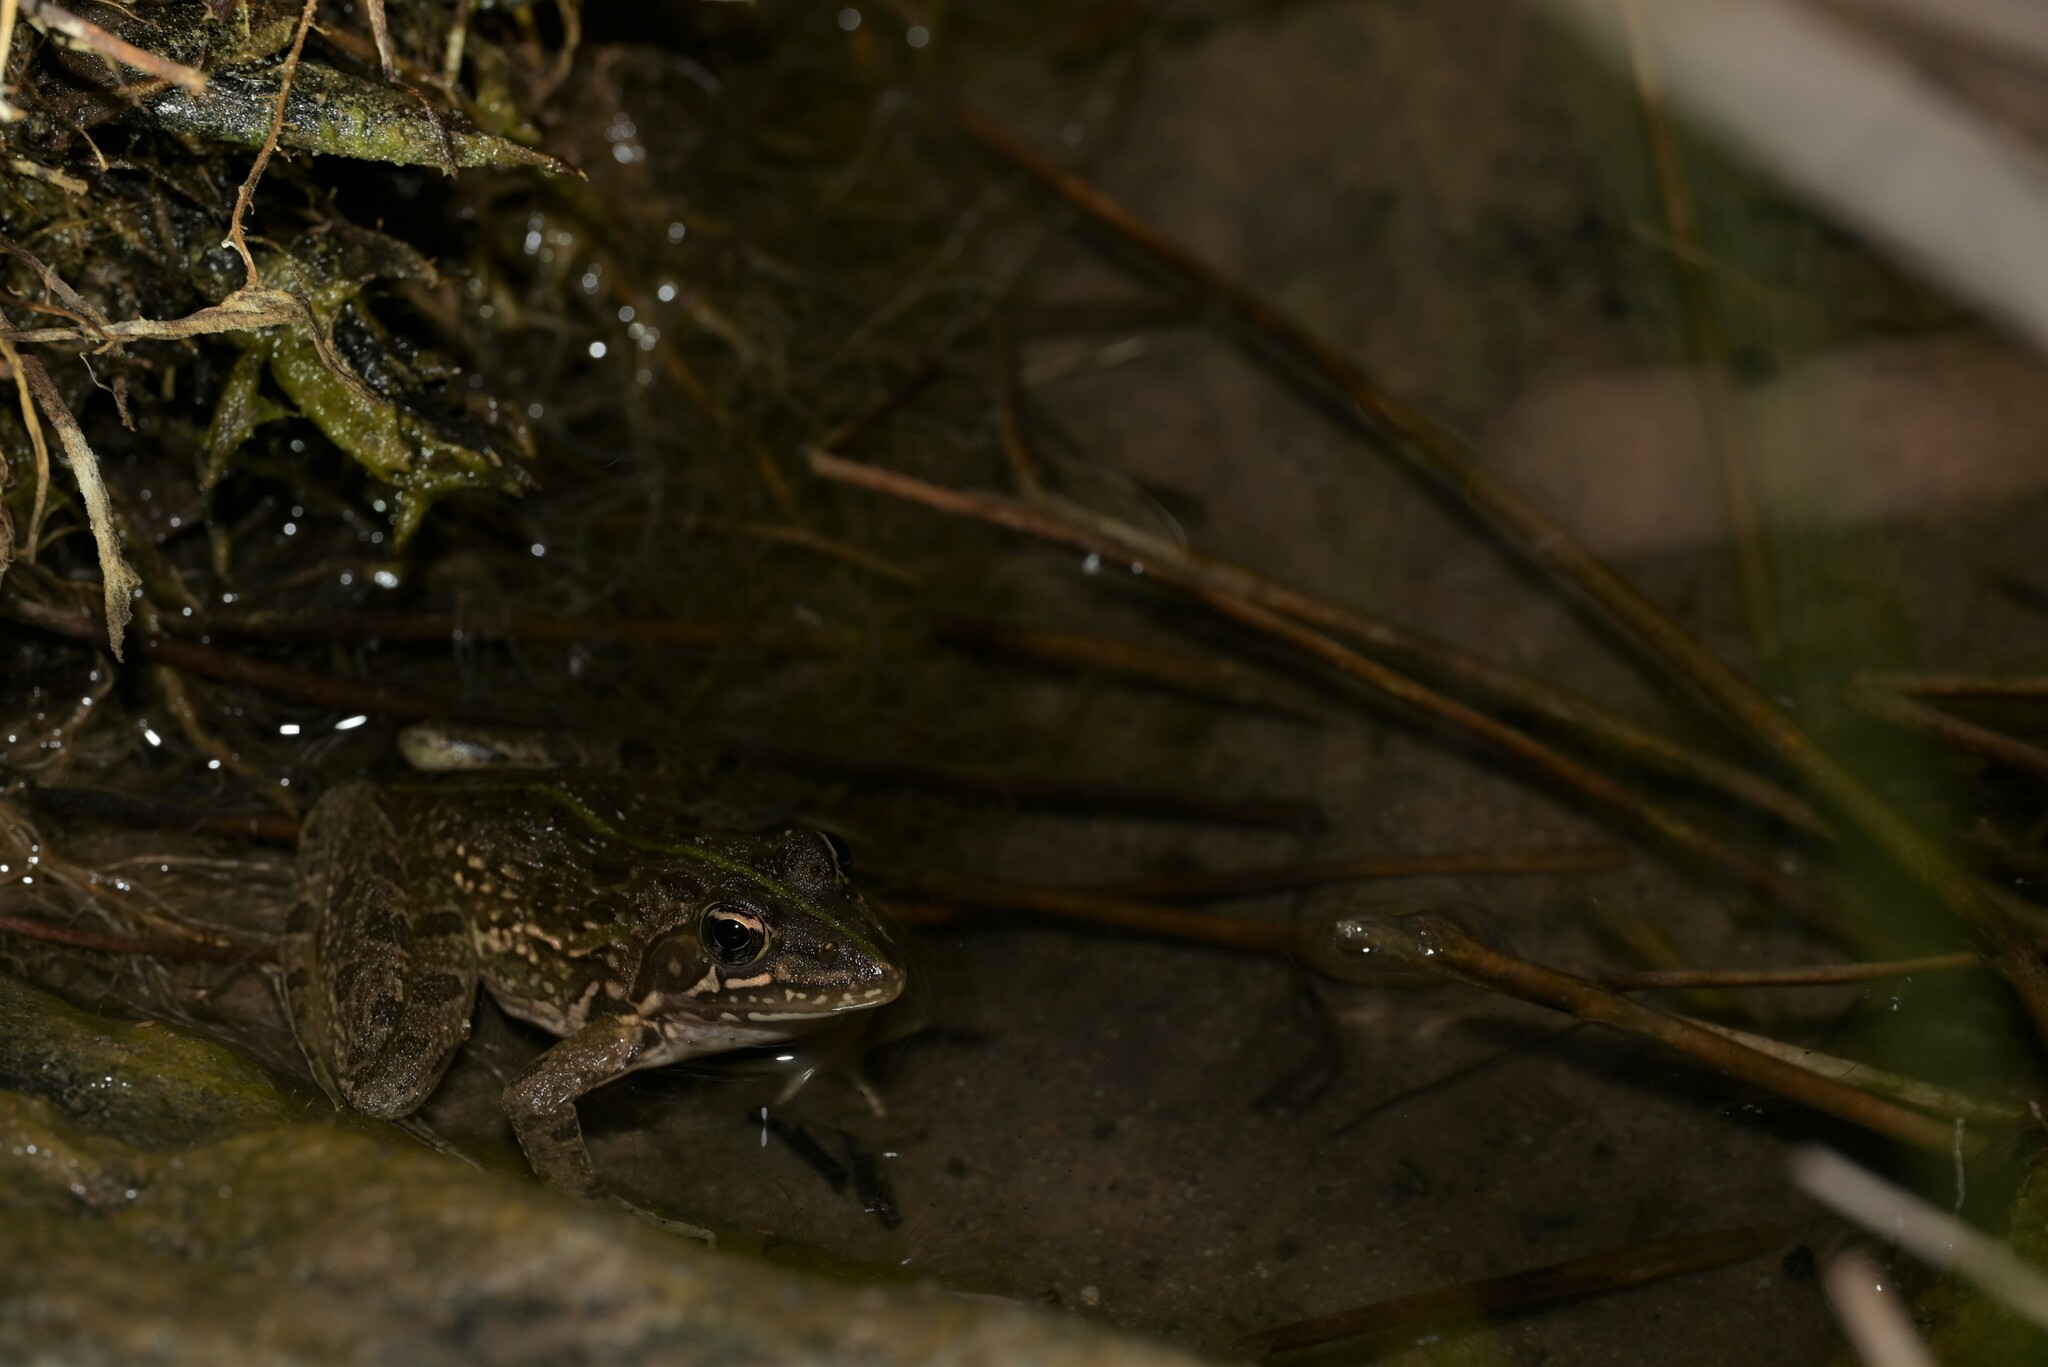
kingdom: Animalia
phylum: Chordata
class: Amphibia
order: Anura
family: Pyxicephalidae
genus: Amietia
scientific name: Amietia delalandii
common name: Delalande's river frog
